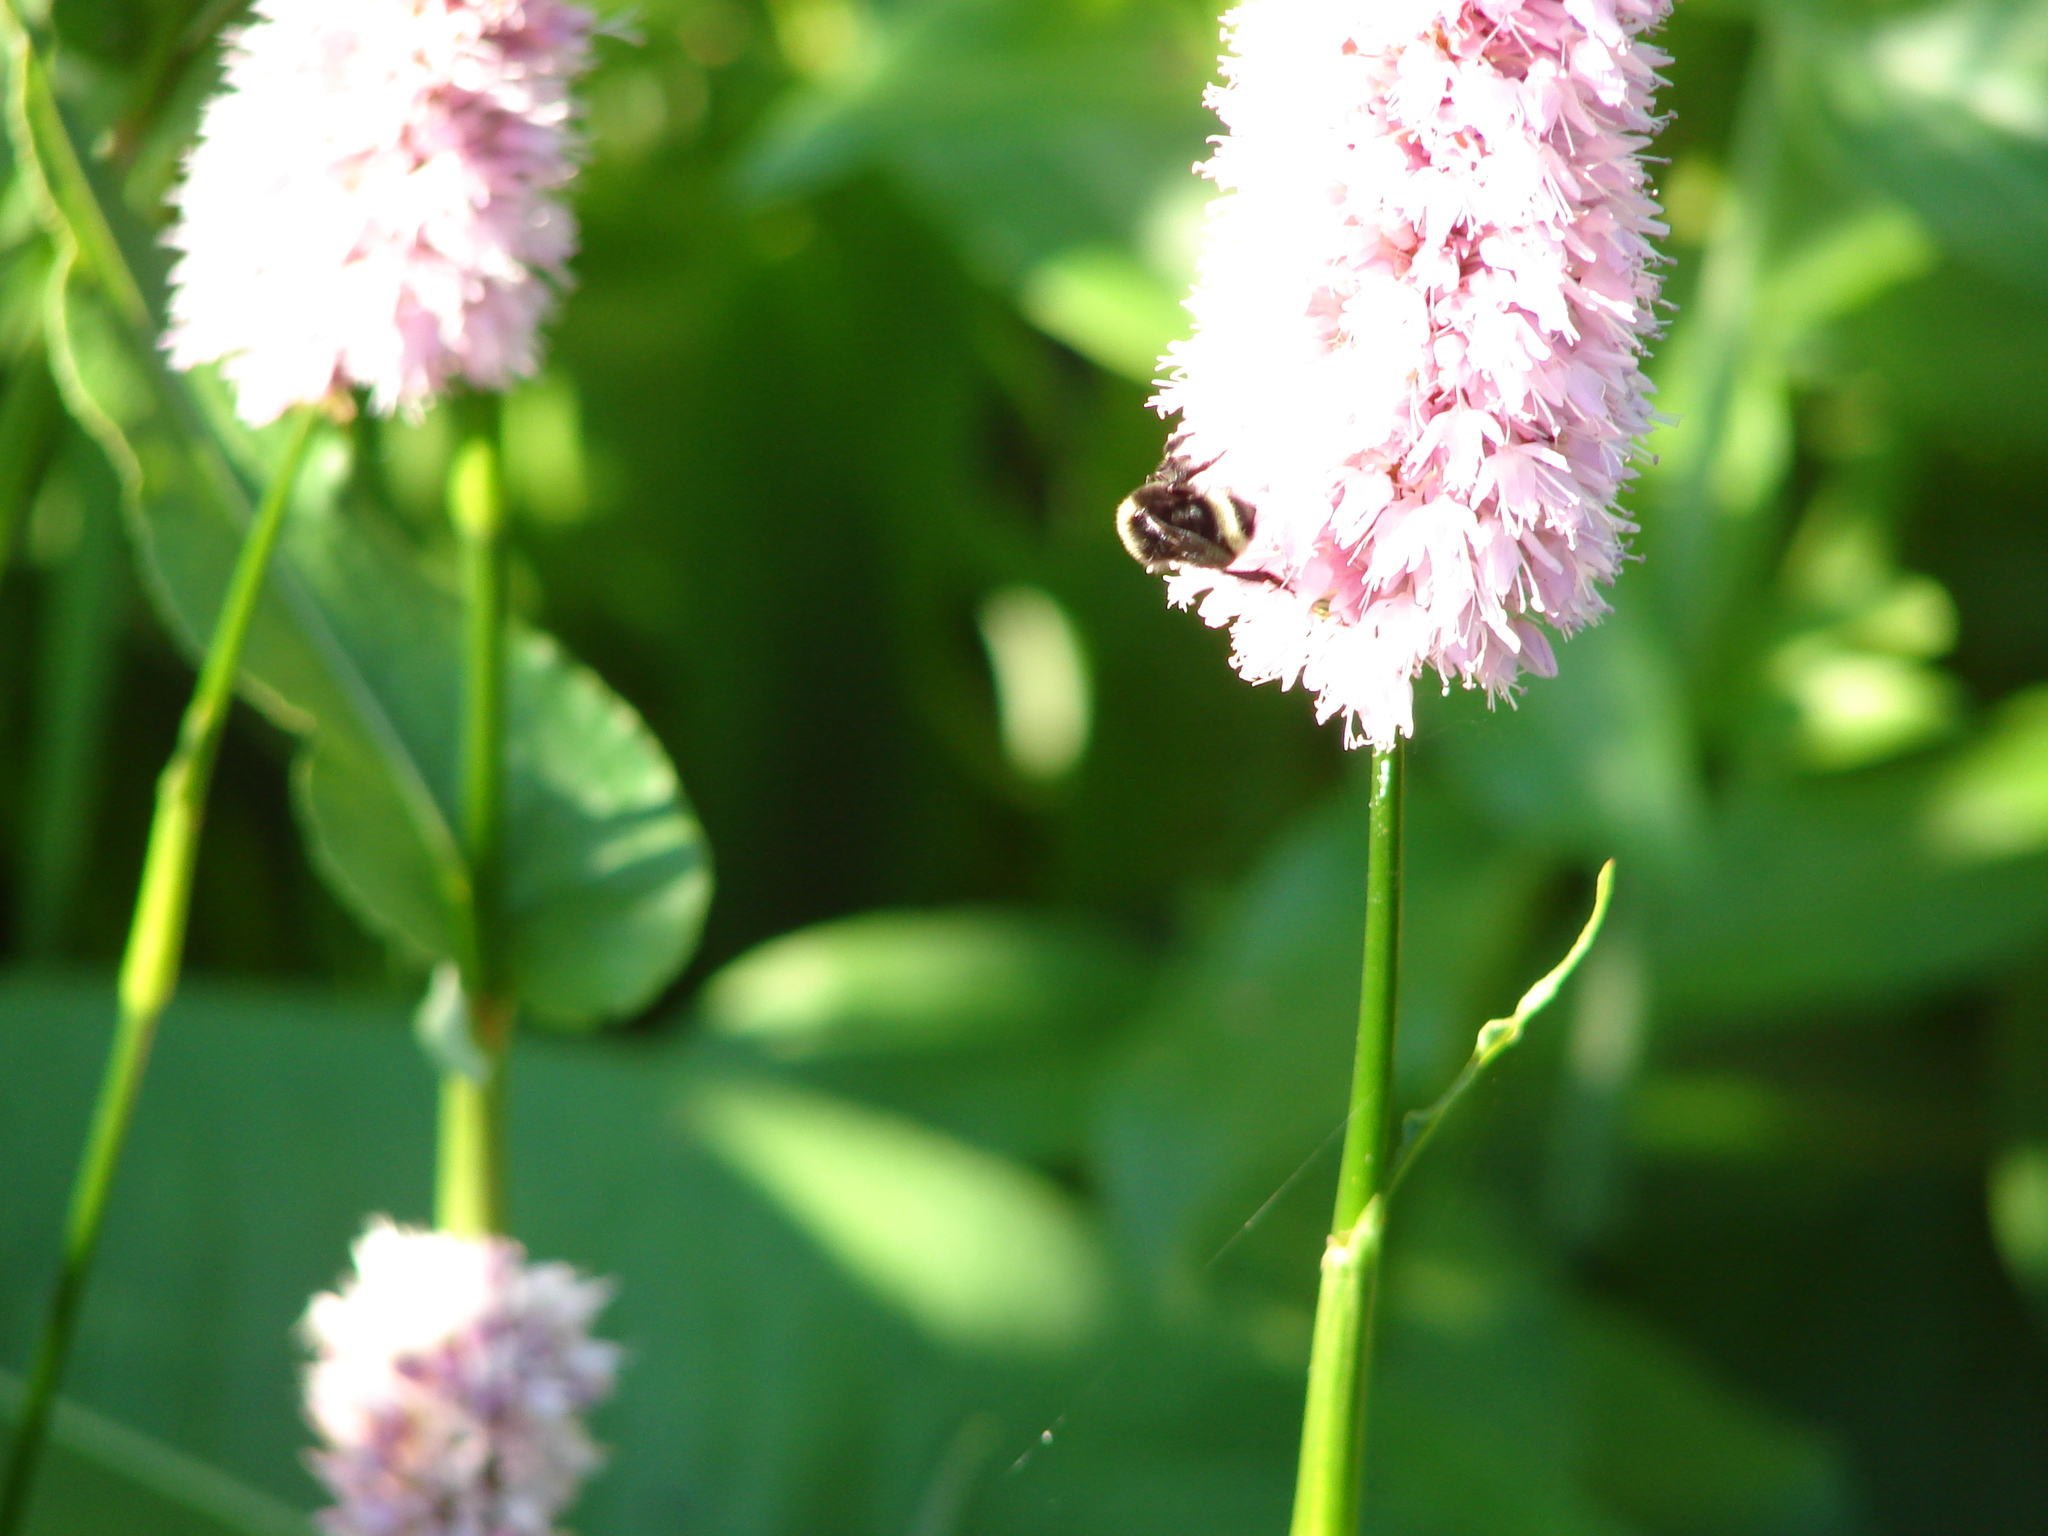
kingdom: Animalia
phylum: Arthropoda
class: Insecta
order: Hymenoptera
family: Apidae
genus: Bombus
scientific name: Bombus vosnesenskii
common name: Vosnesensky bumble bee
